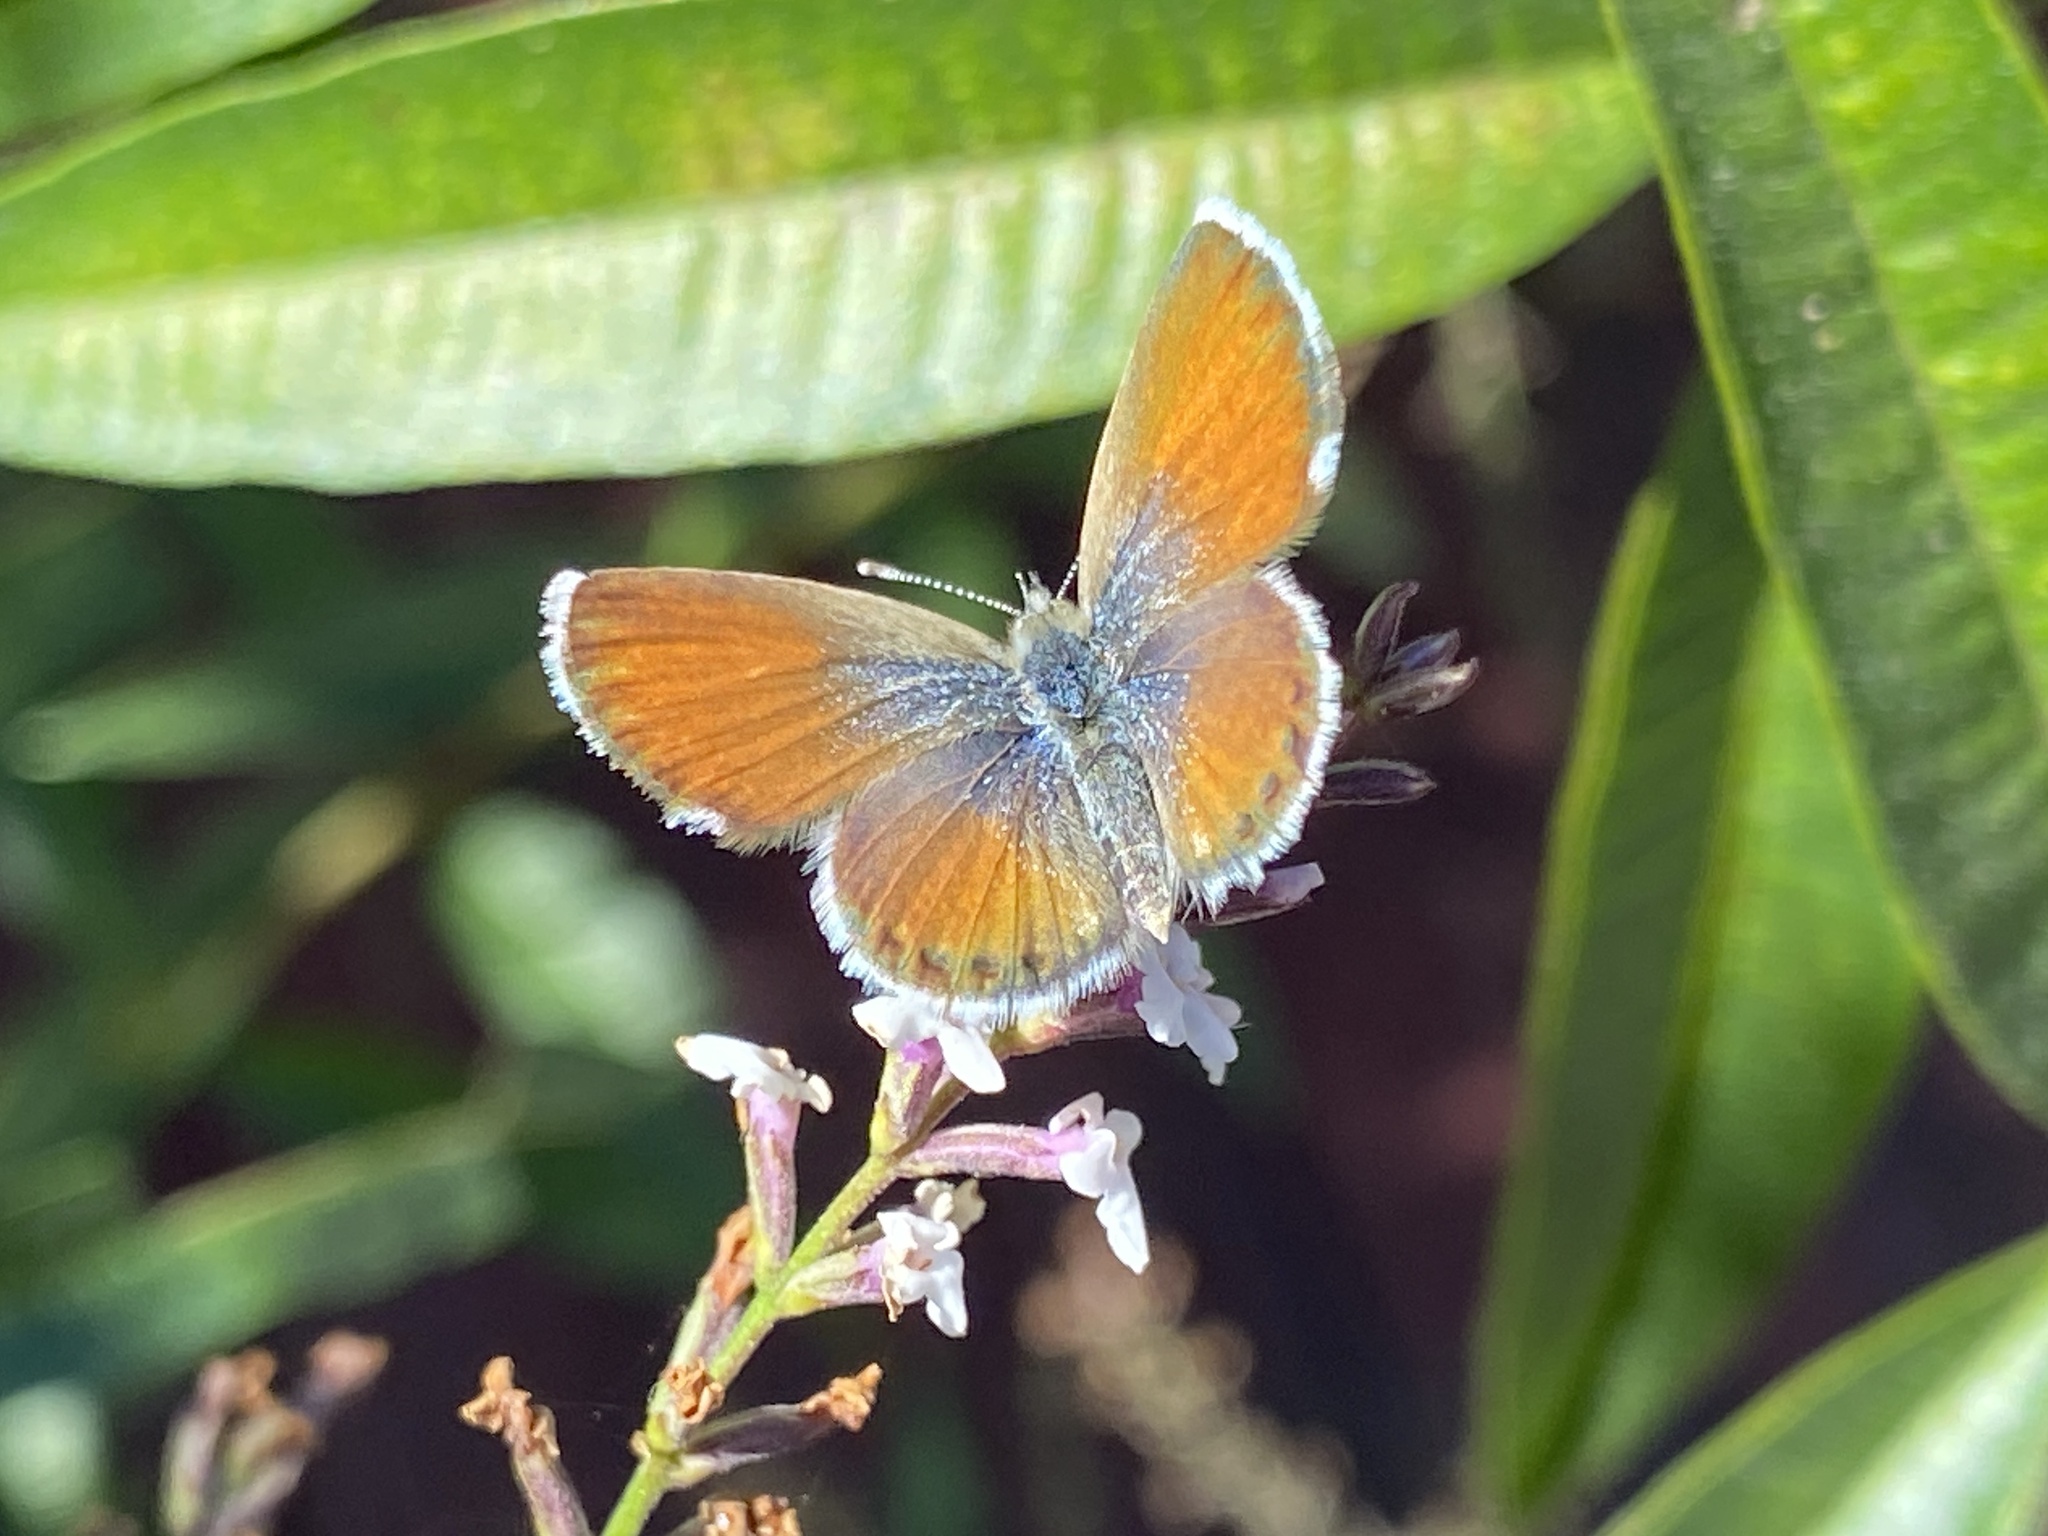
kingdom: Animalia
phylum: Arthropoda
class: Insecta
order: Lepidoptera
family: Lycaenidae
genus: Brephidium
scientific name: Brephidium exilis
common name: Pygmy blue
